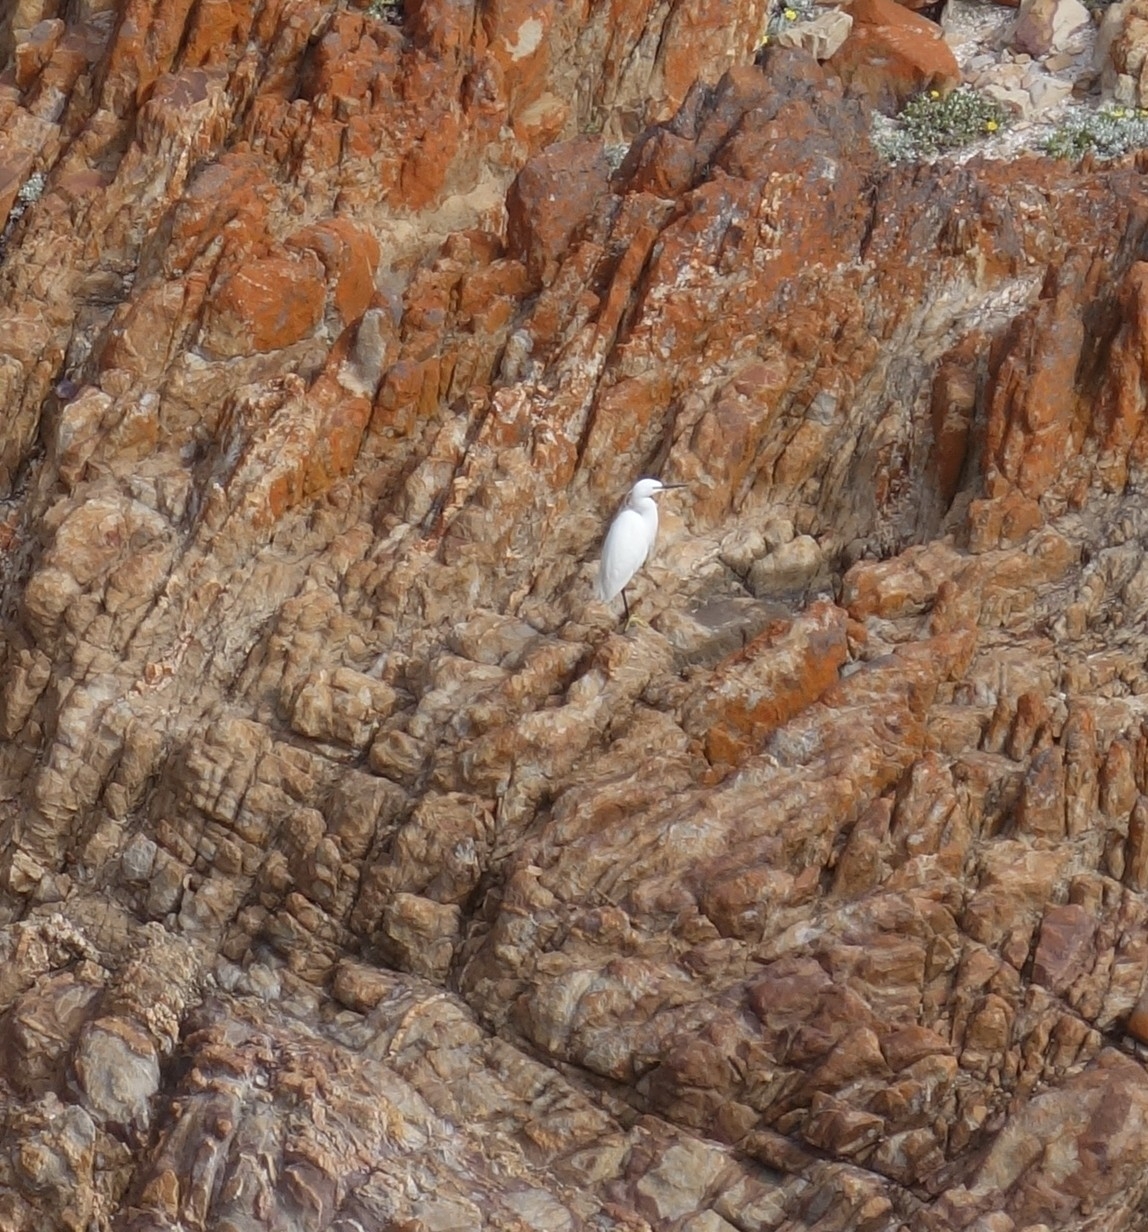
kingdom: Animalia
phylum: Chordata
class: Aves
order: Pelecaniformes
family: Ardeidae
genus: Egretta
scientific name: Egretta garzetta
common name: Little egret
